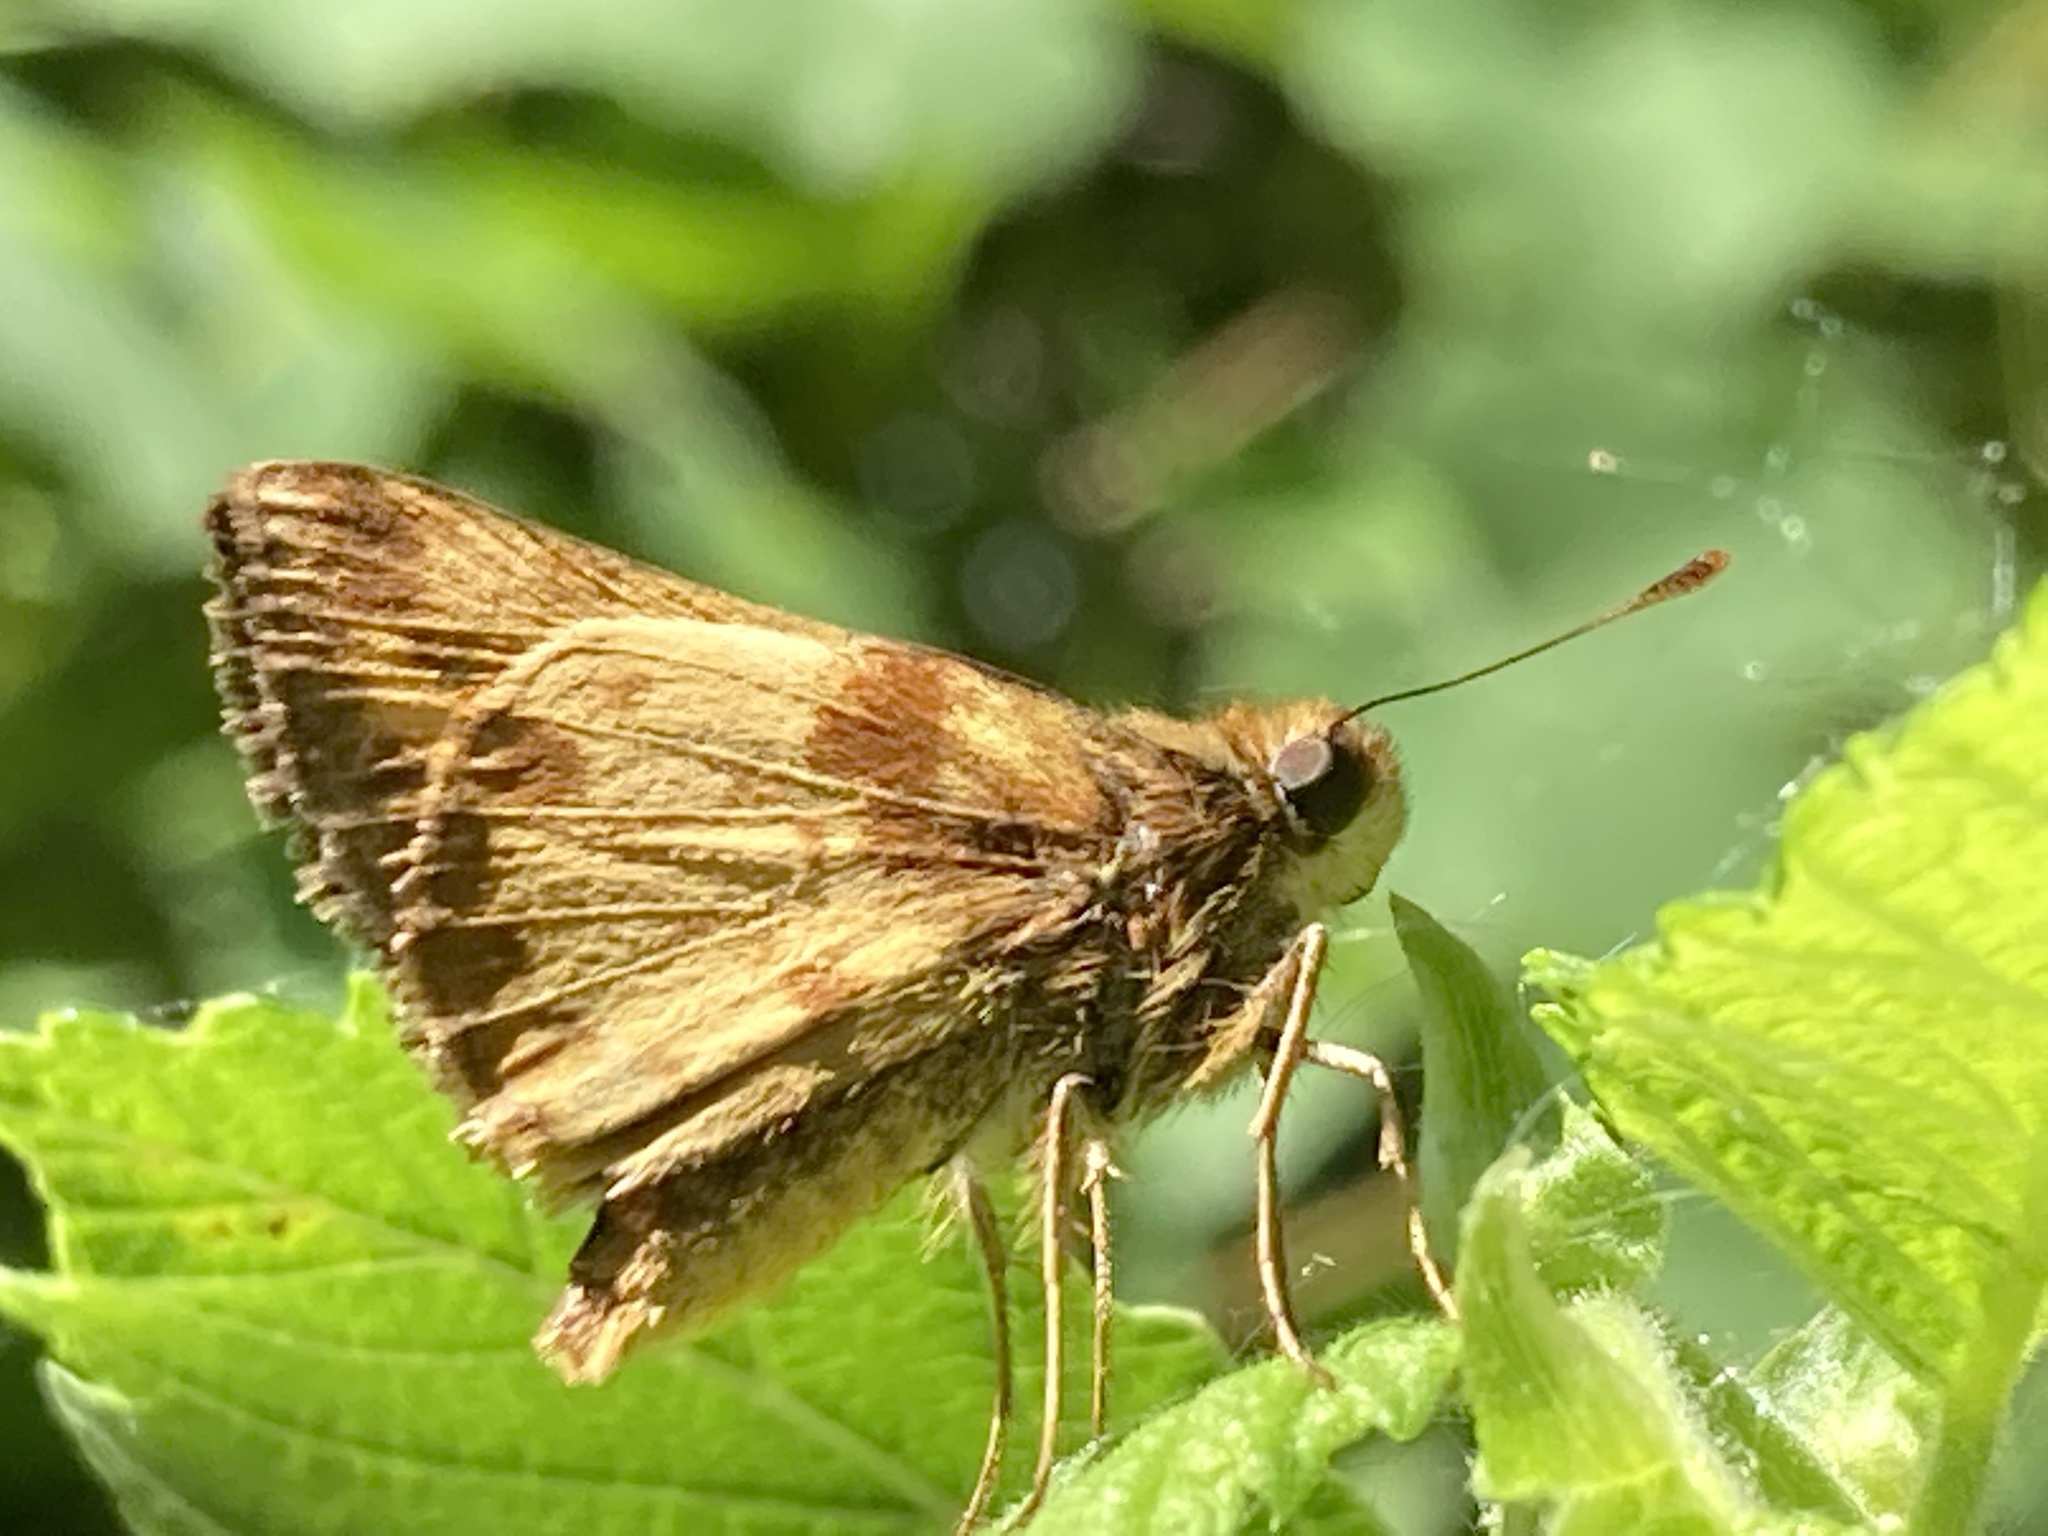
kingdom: Animalia
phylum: Arthropoda
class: Insecta
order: Lepidoptera
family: Hesperiidae
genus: Lon
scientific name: Lon zabulon
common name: Zabulon skipper
